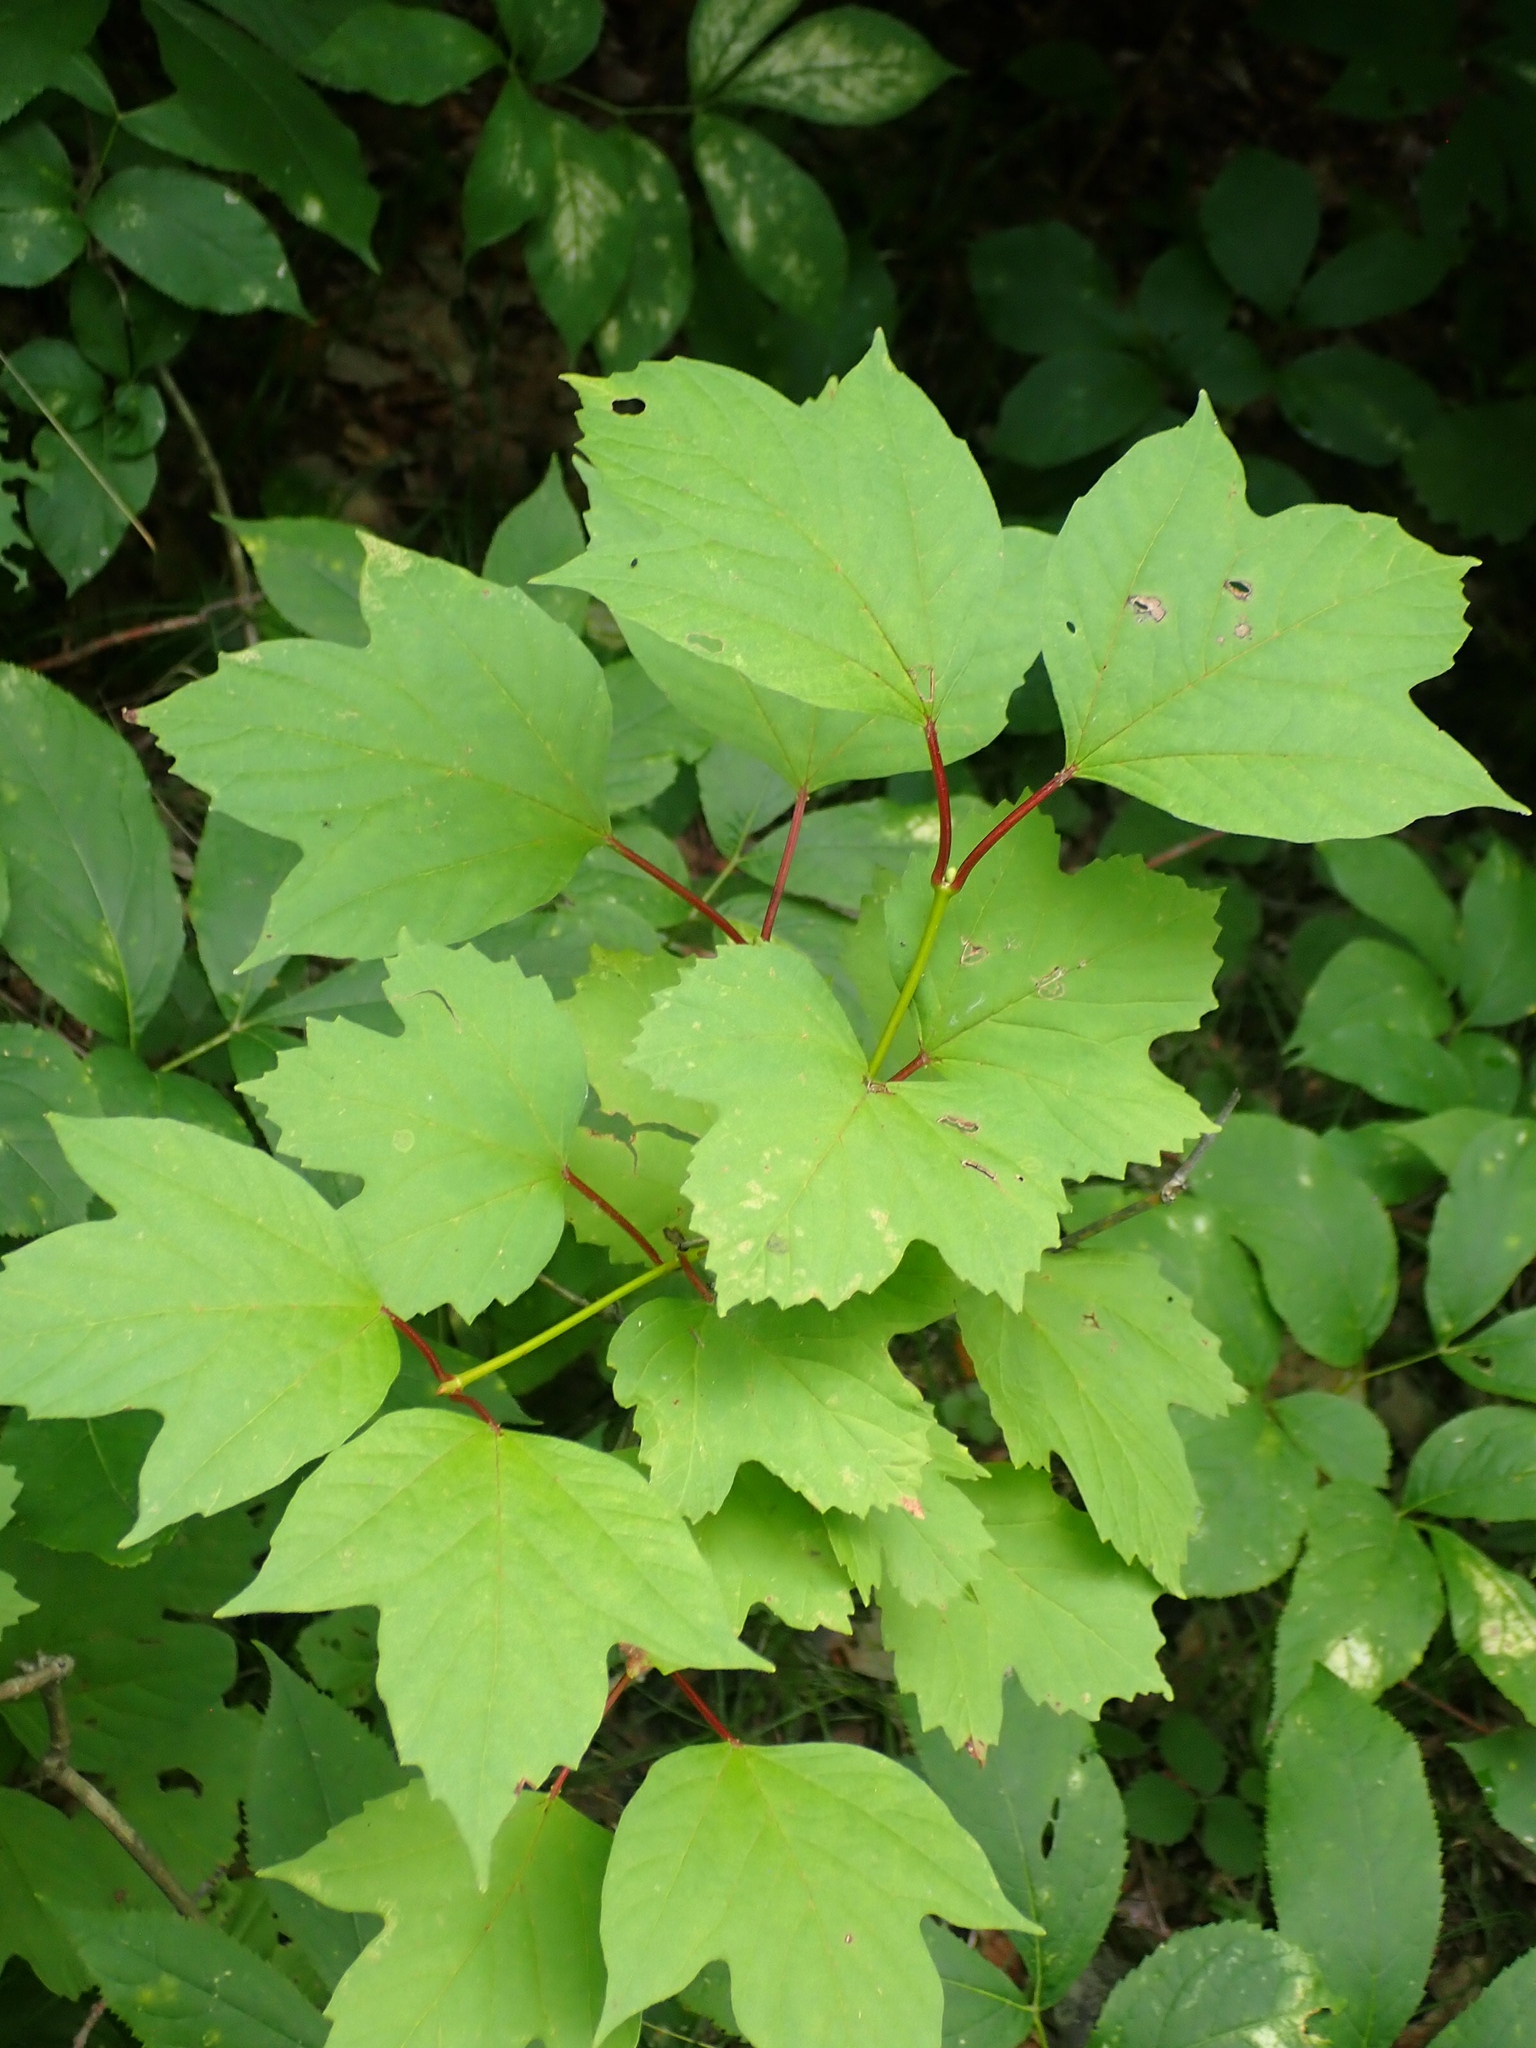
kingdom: Plantae
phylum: Tracheophyta
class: Magnoliopsida
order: Dipsacales
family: Viburnaceae
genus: Viburnum
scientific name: Viburnum trilobum
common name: American cranberrybush
